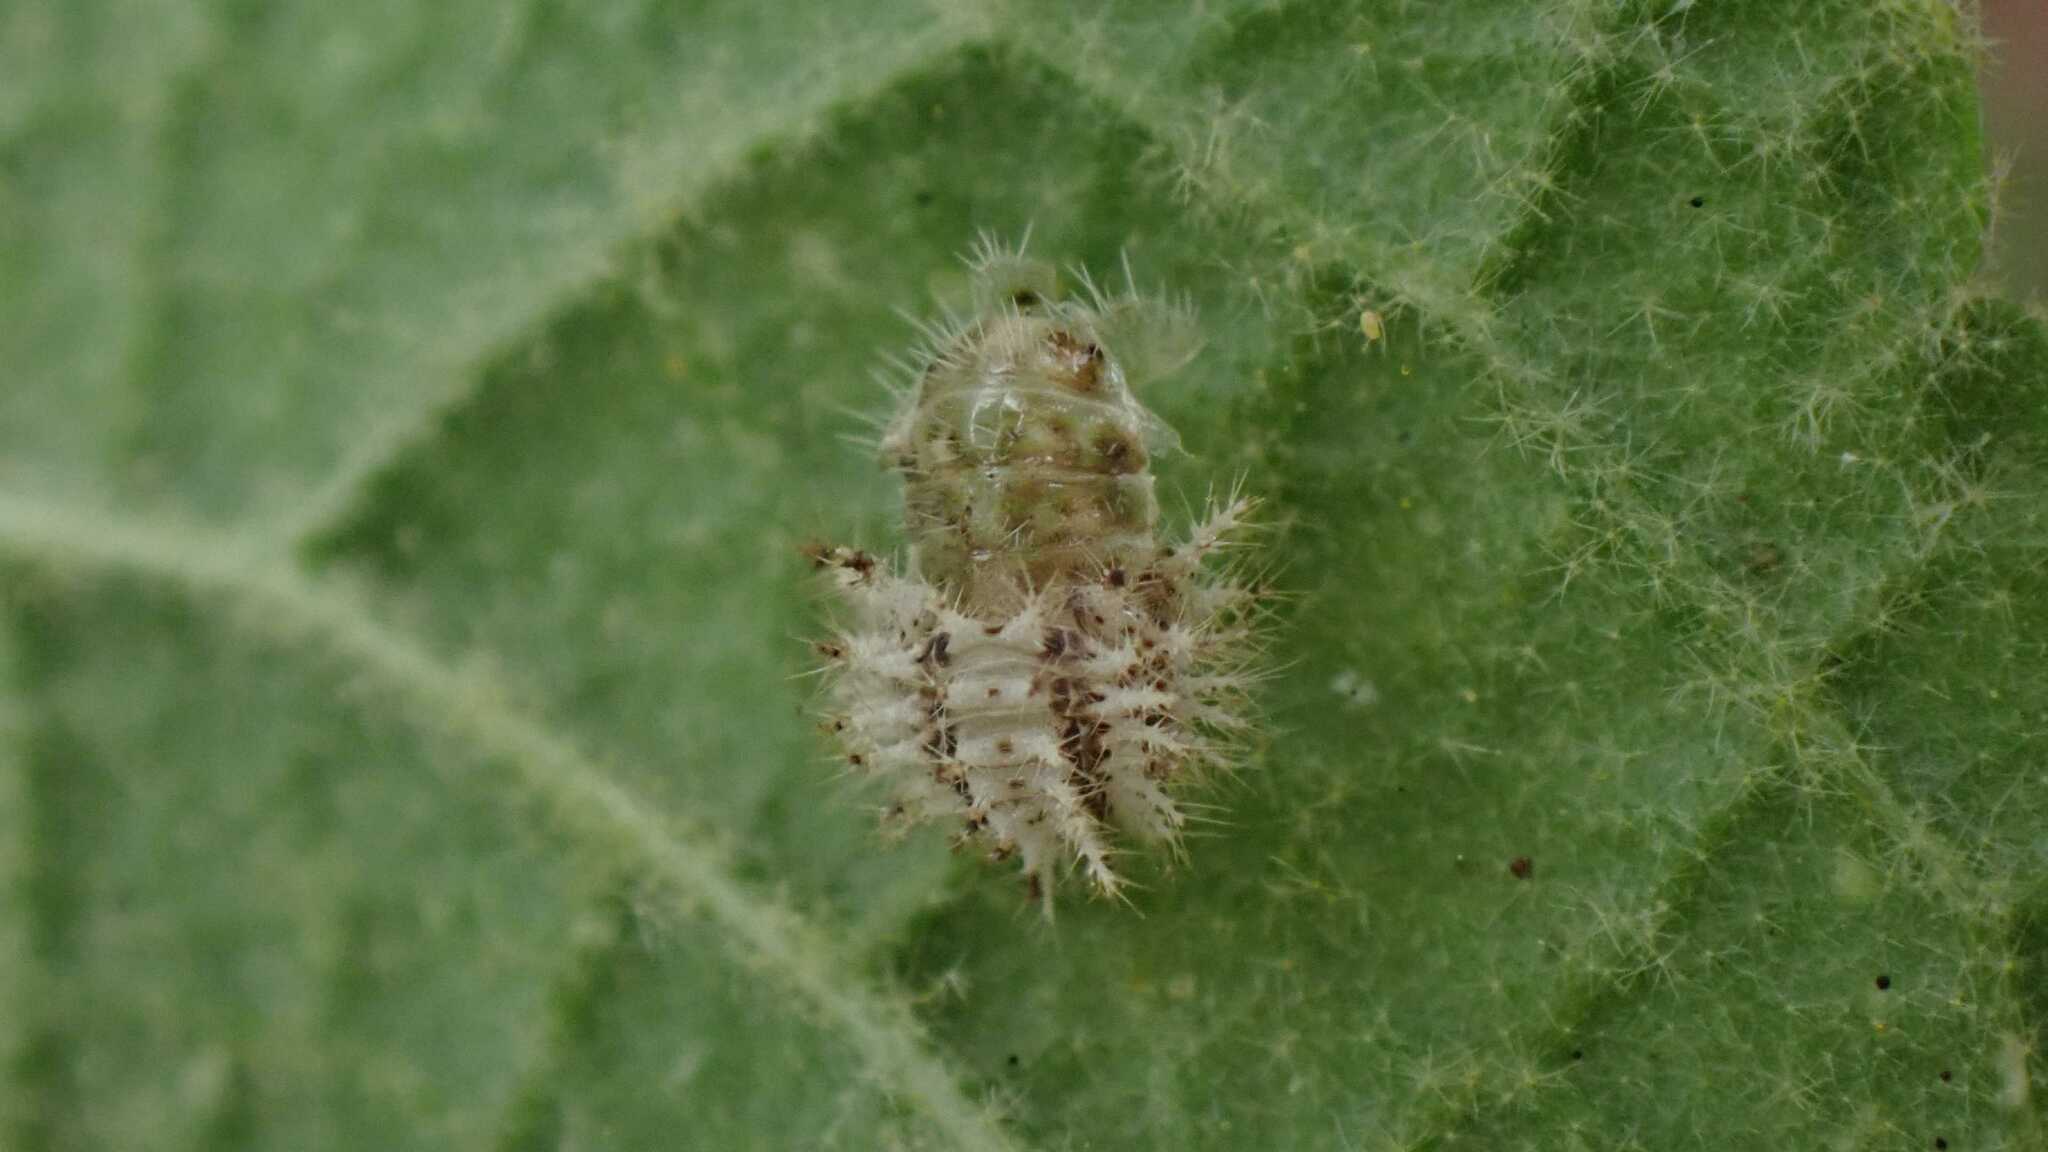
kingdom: Animalia
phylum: Arthropoda
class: Insecta
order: Coleoptera
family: Coccinellidae
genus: Subcoccinella
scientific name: Subcoccinella vigintiquatuorpunctata
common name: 24-spot ladybird
